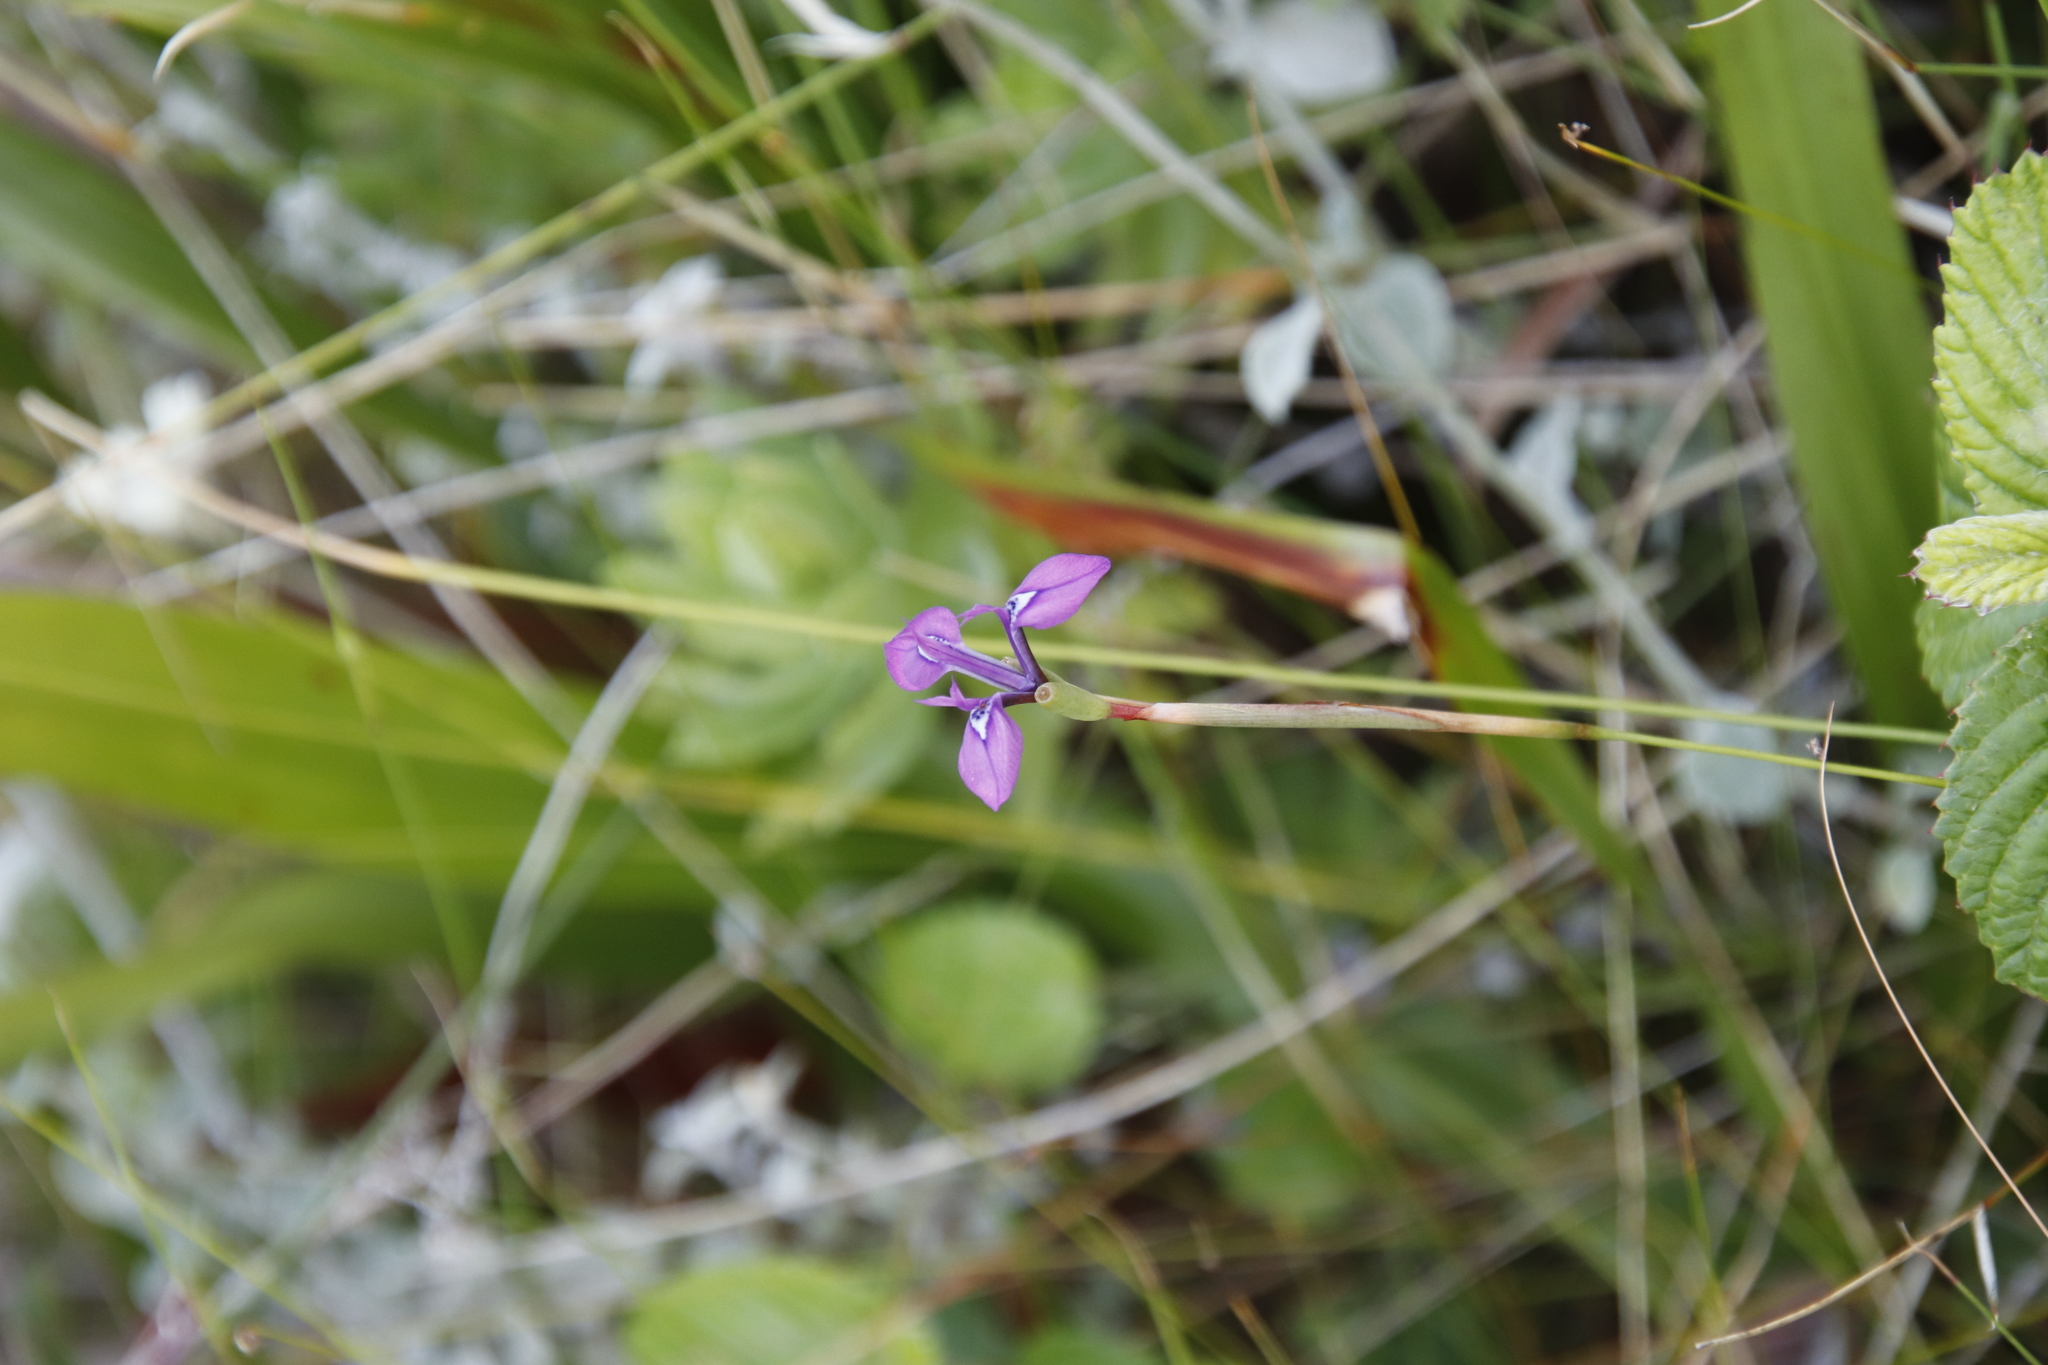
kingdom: Plantae
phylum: Tracheophyta
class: Liliopsida
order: Asparagales
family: Iridaceae
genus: Moraea
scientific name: Moraea tripetala
